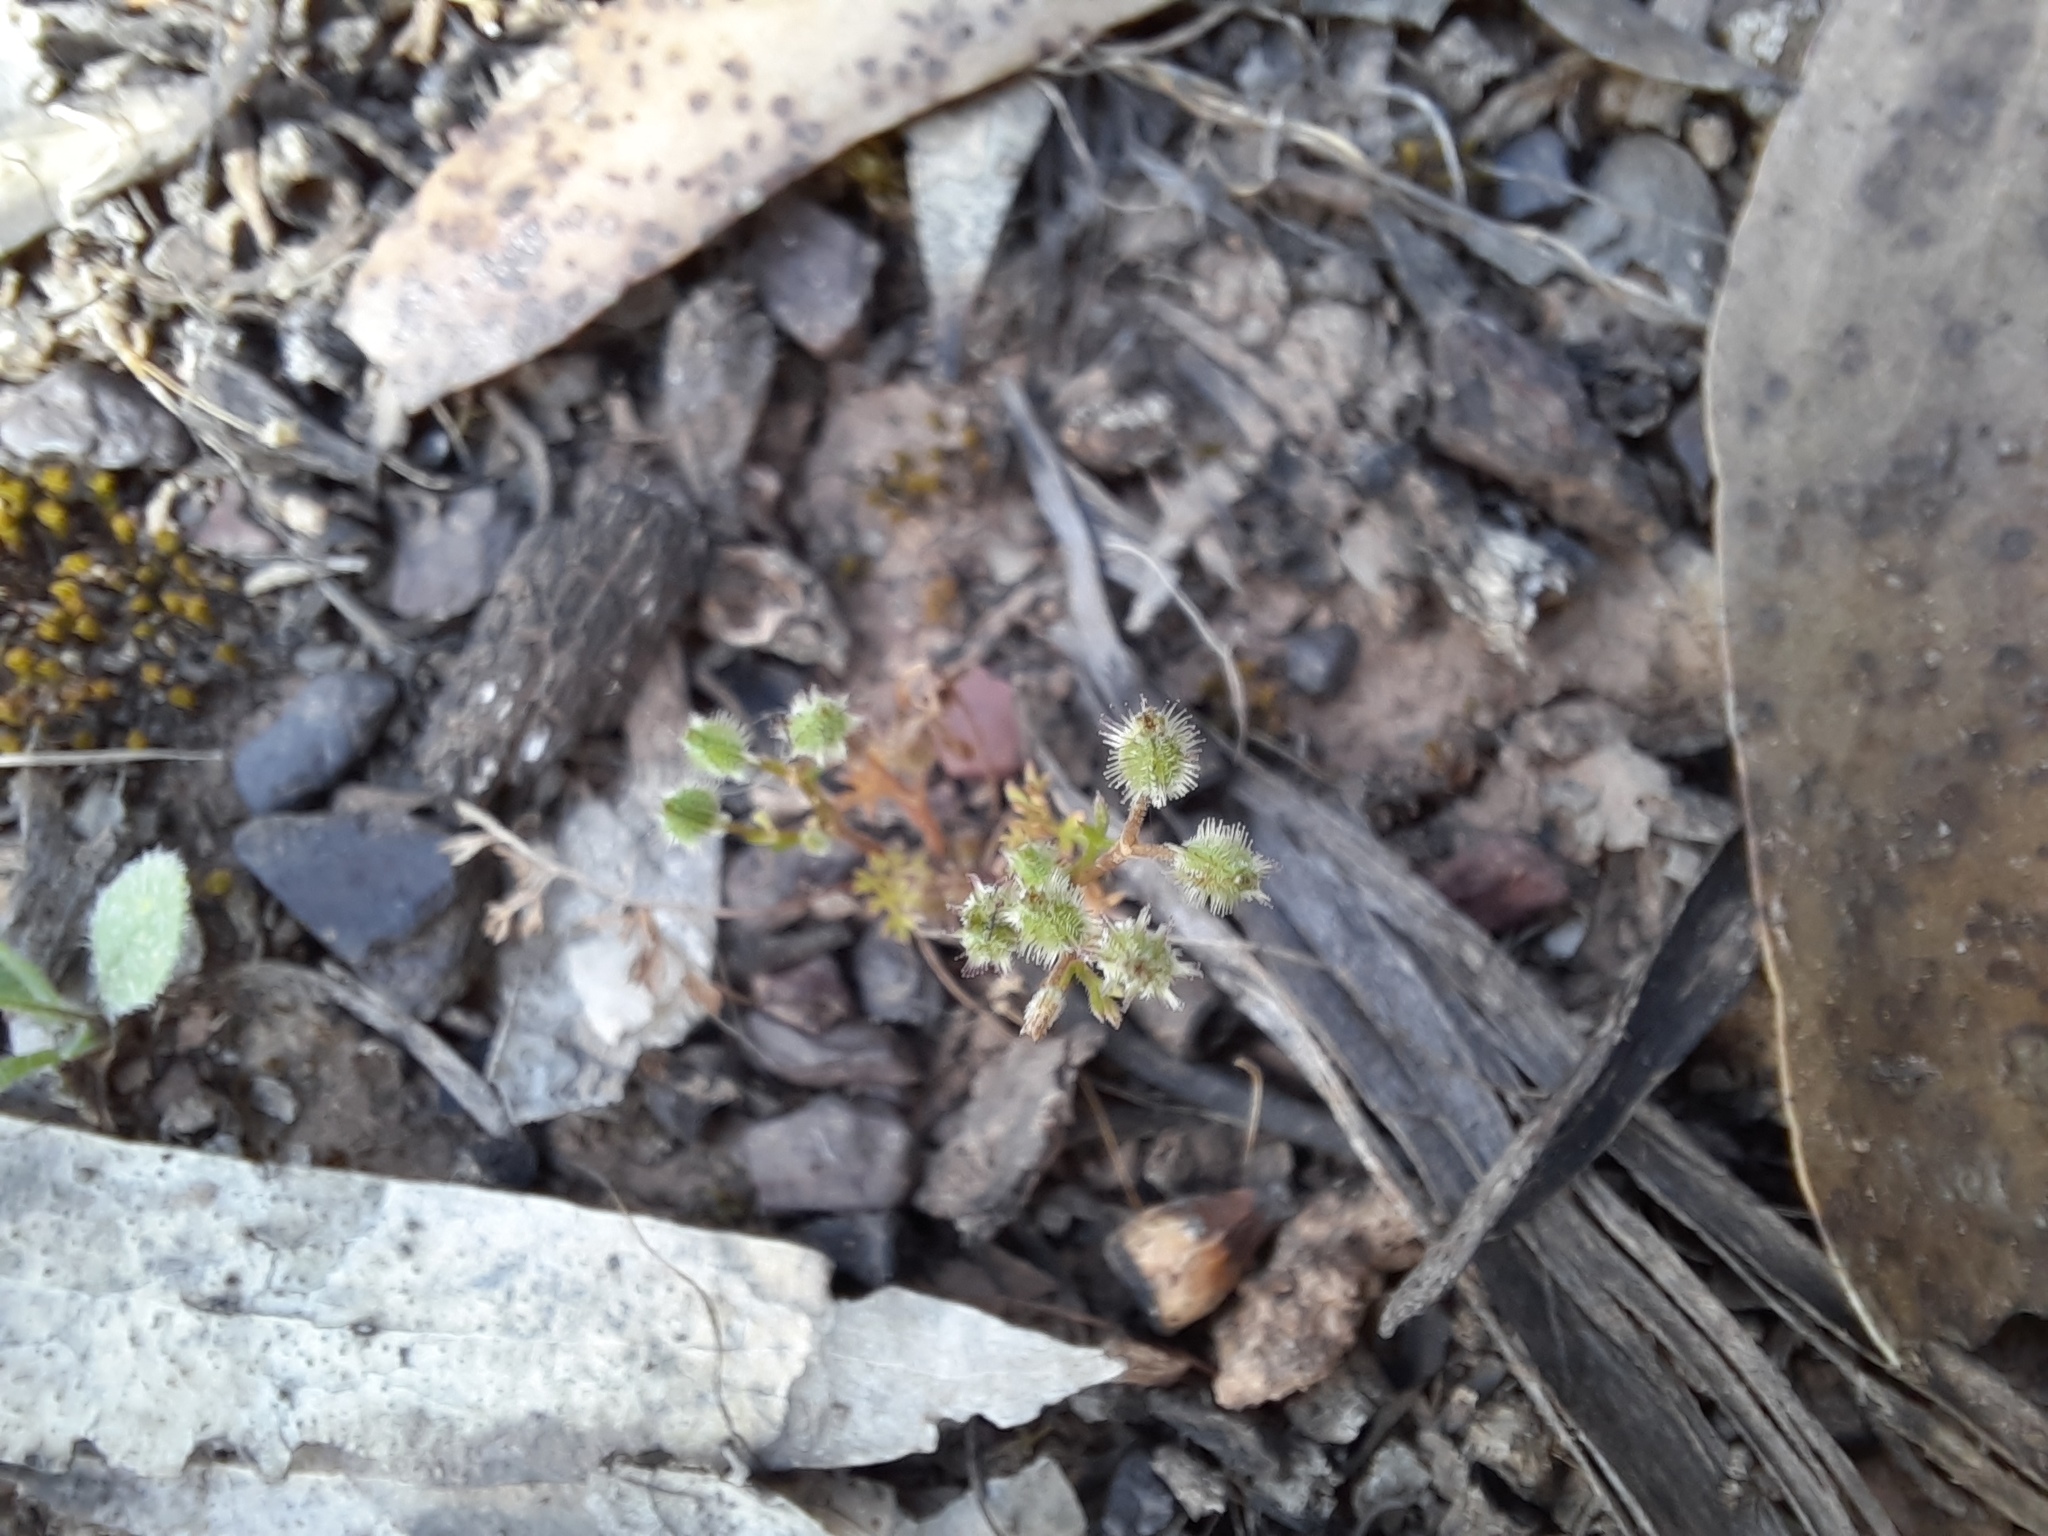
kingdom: Plantae
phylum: Tracheophyta
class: Magnoliopsida
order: Apiales
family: Apiaceae
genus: Daucus
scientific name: Daucus glochidiatus
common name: Australian carrot
